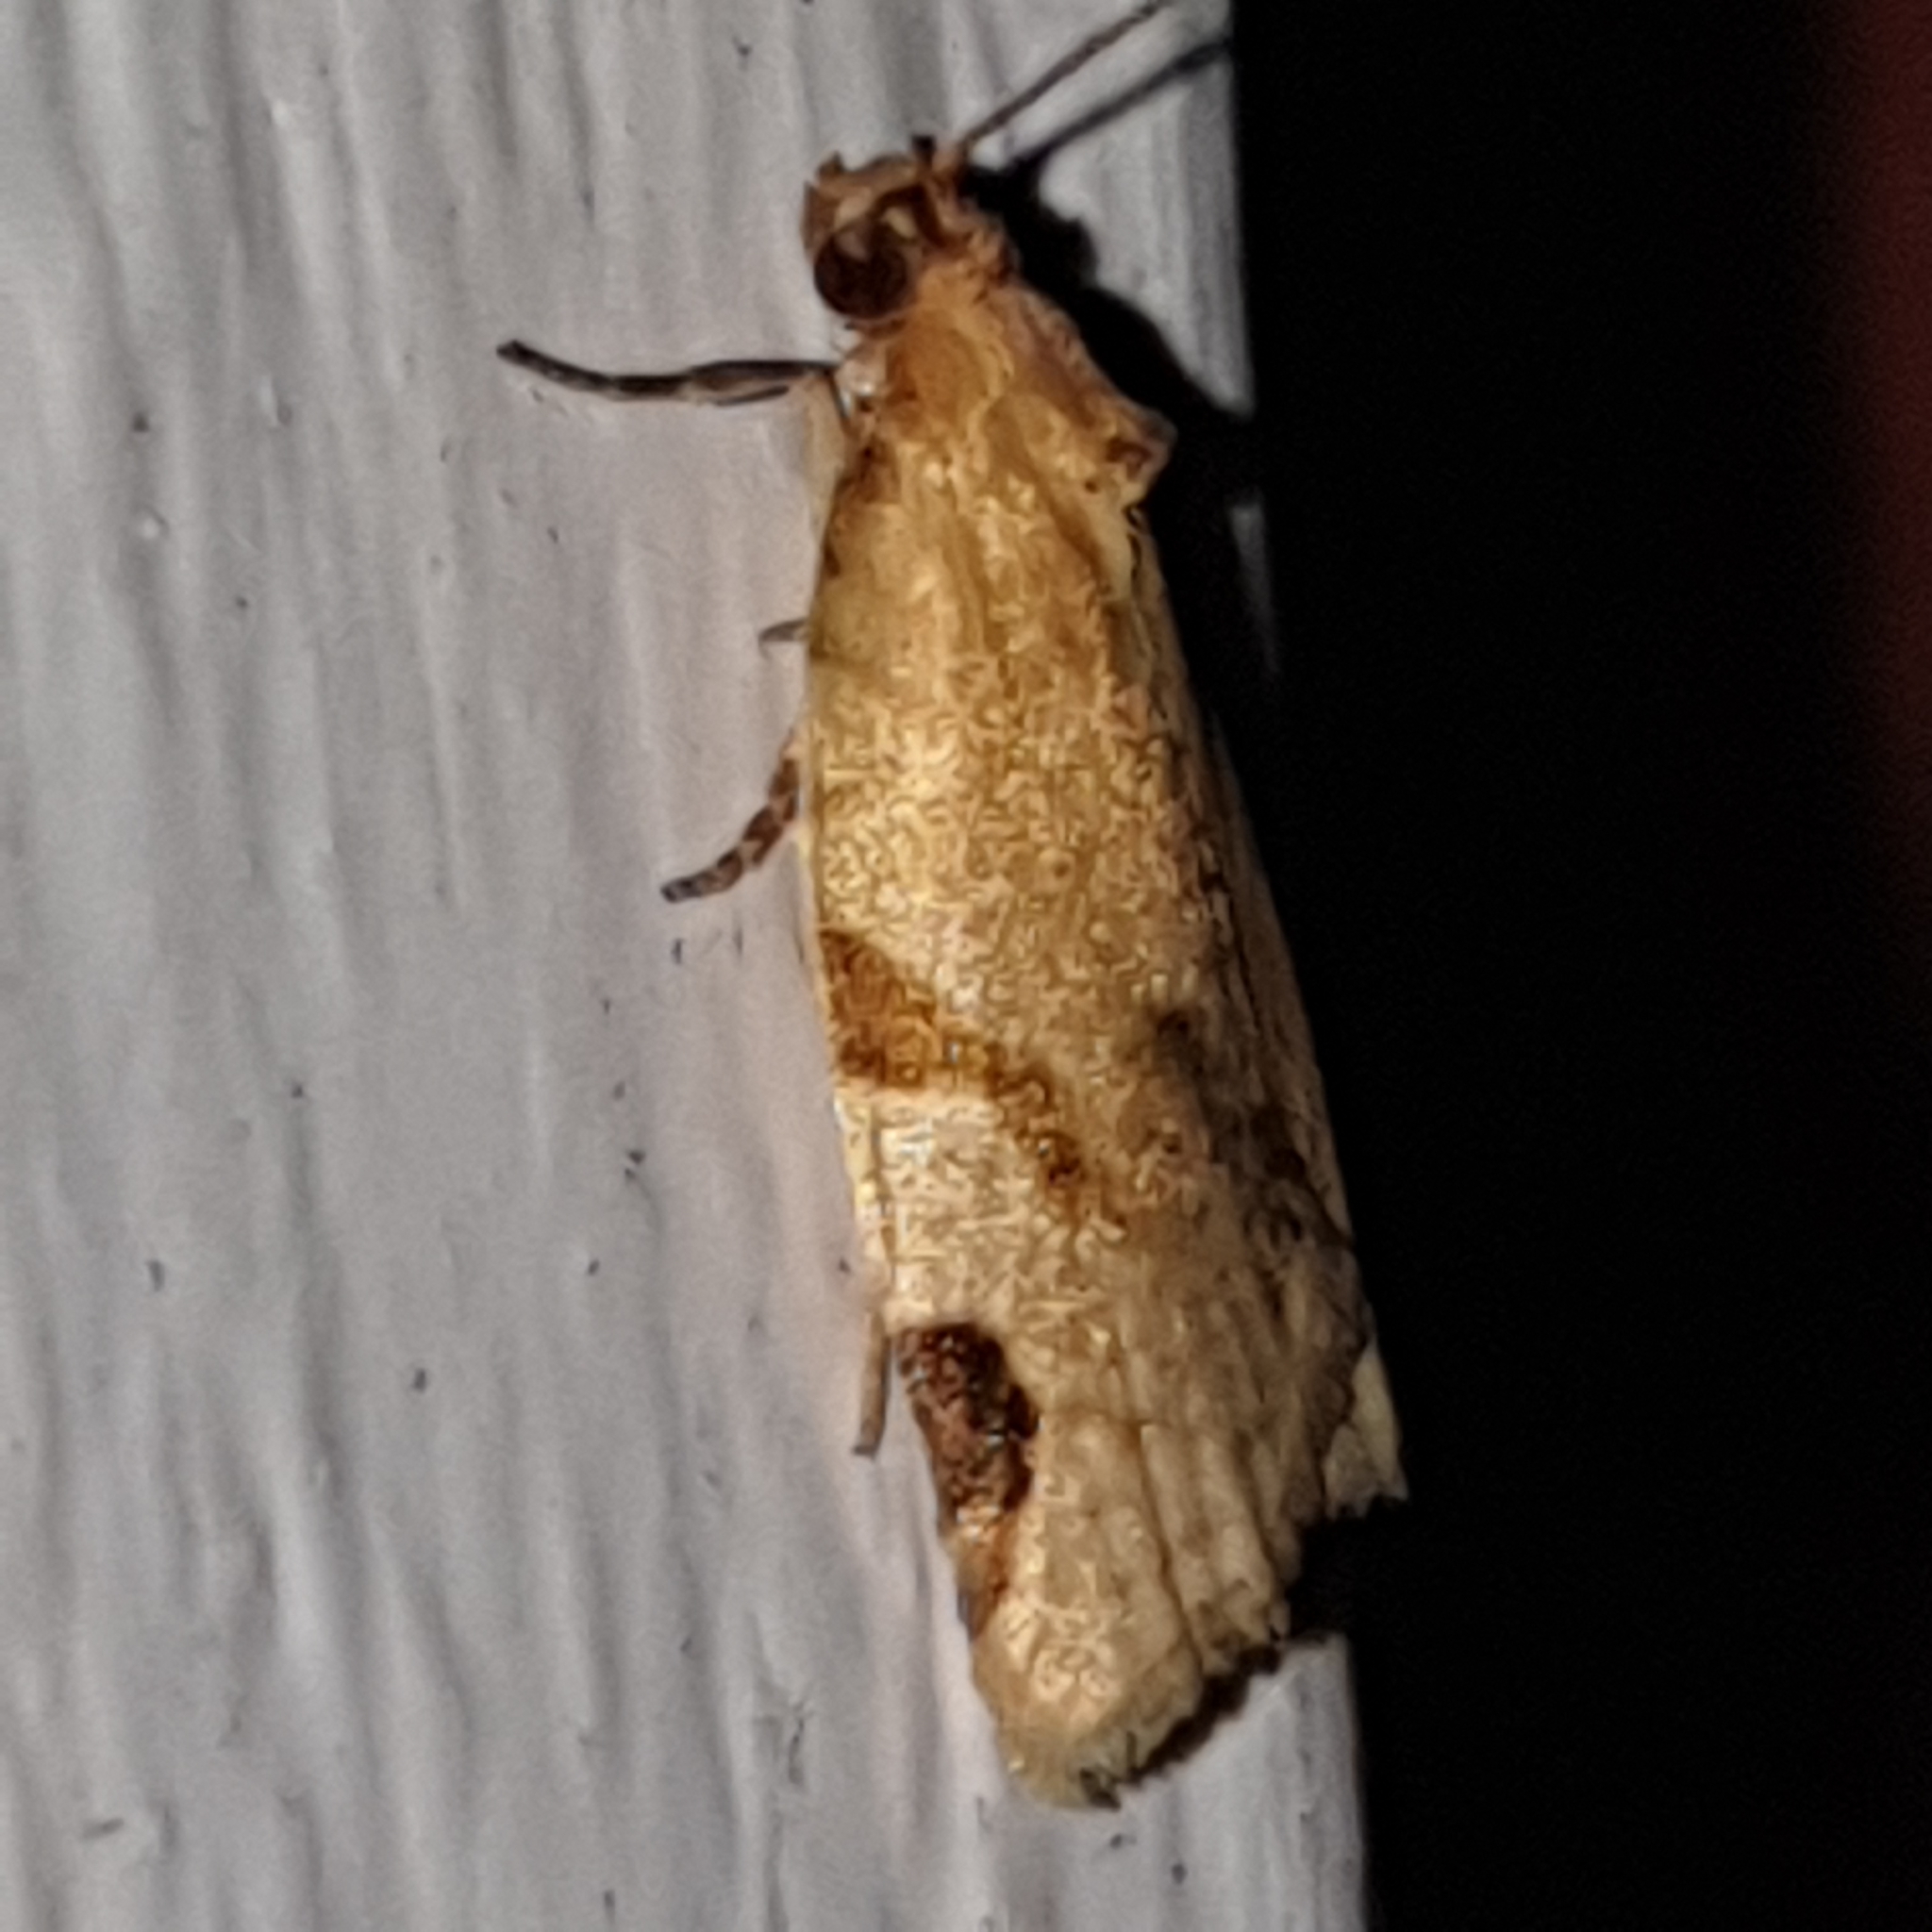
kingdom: Animalia
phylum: Arthropoda
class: Insecta
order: Lepidoptera
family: Tortricidae
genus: Paramesia
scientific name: Paramesia gnomana
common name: Small straw twist
